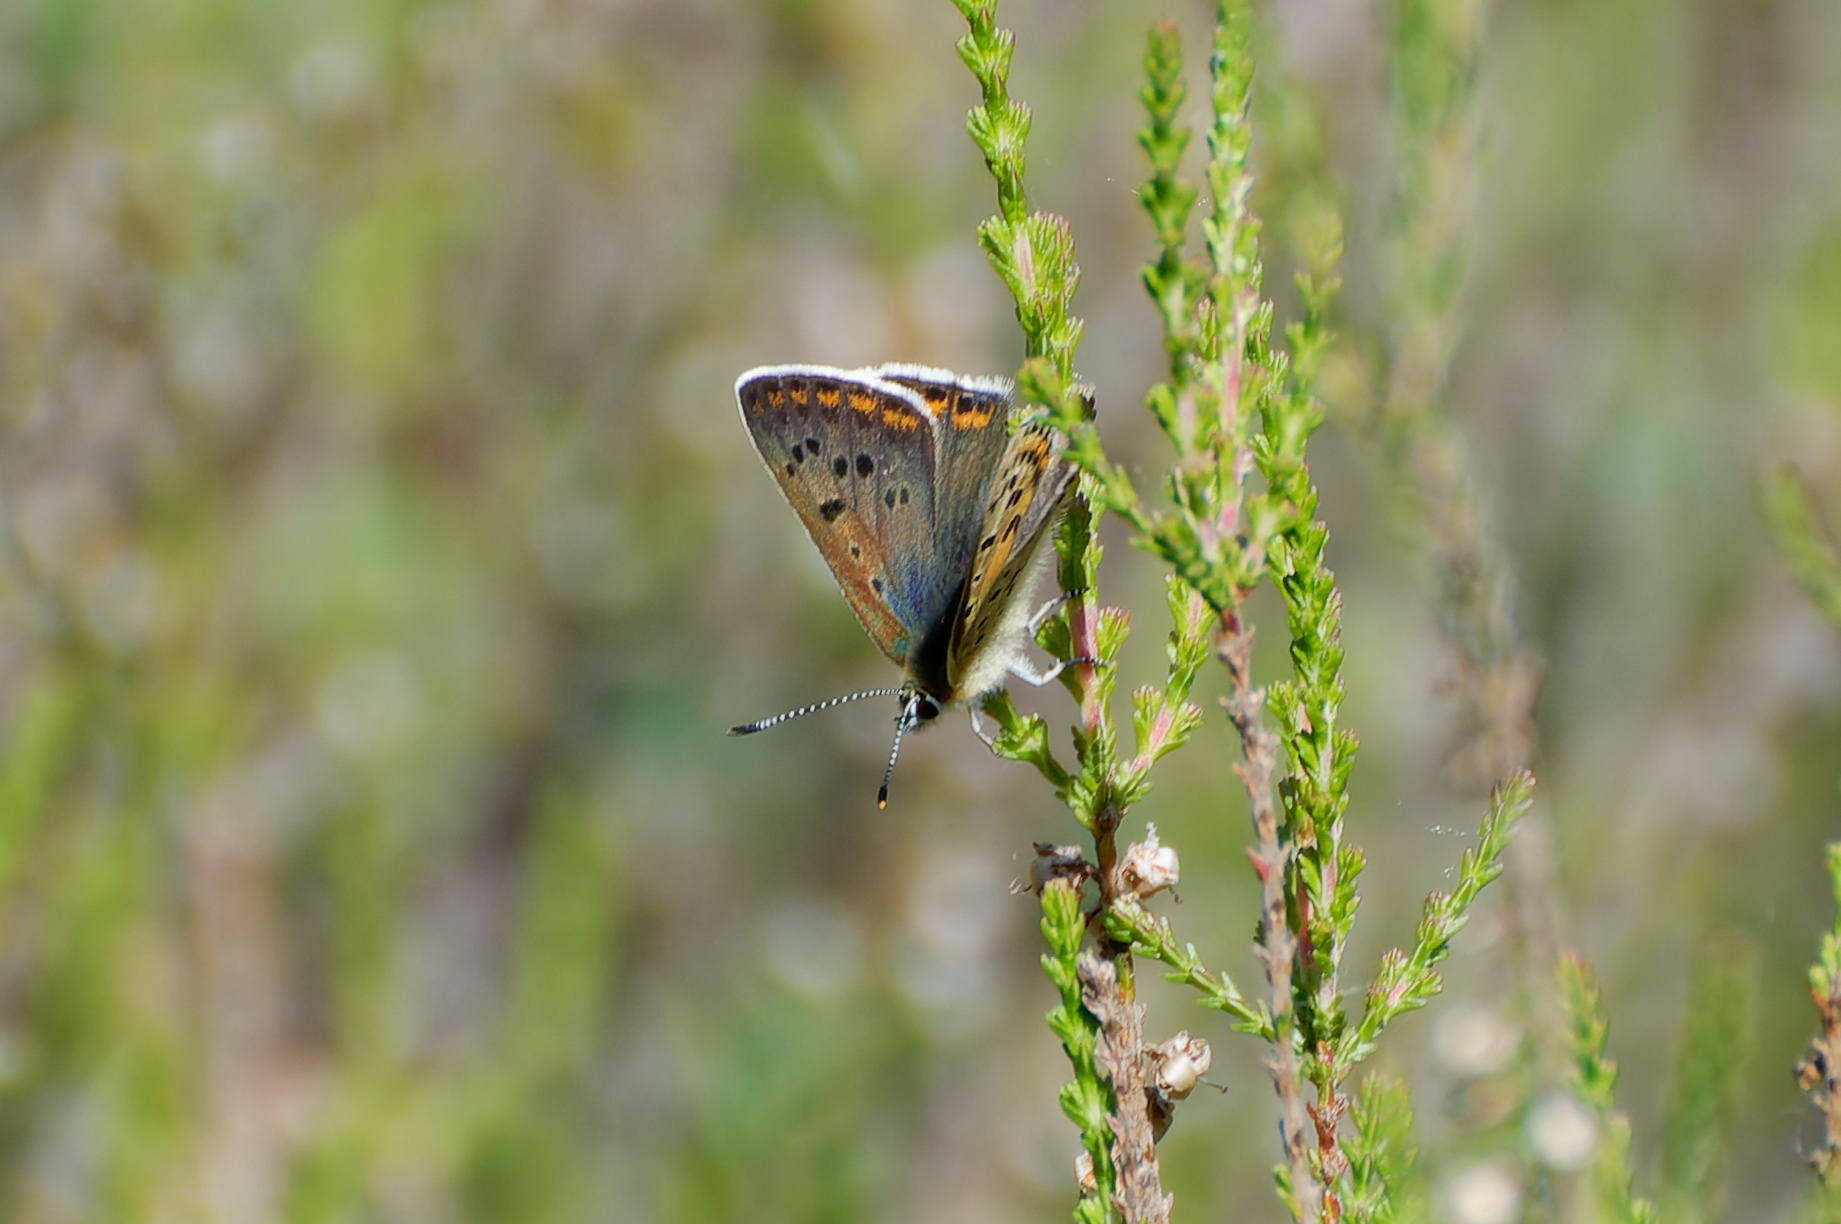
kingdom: Animalia
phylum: Arthropoda
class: Insecta
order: Lepidoptera
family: Lycaenidae
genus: Loweia
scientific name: Loweia tityrus
